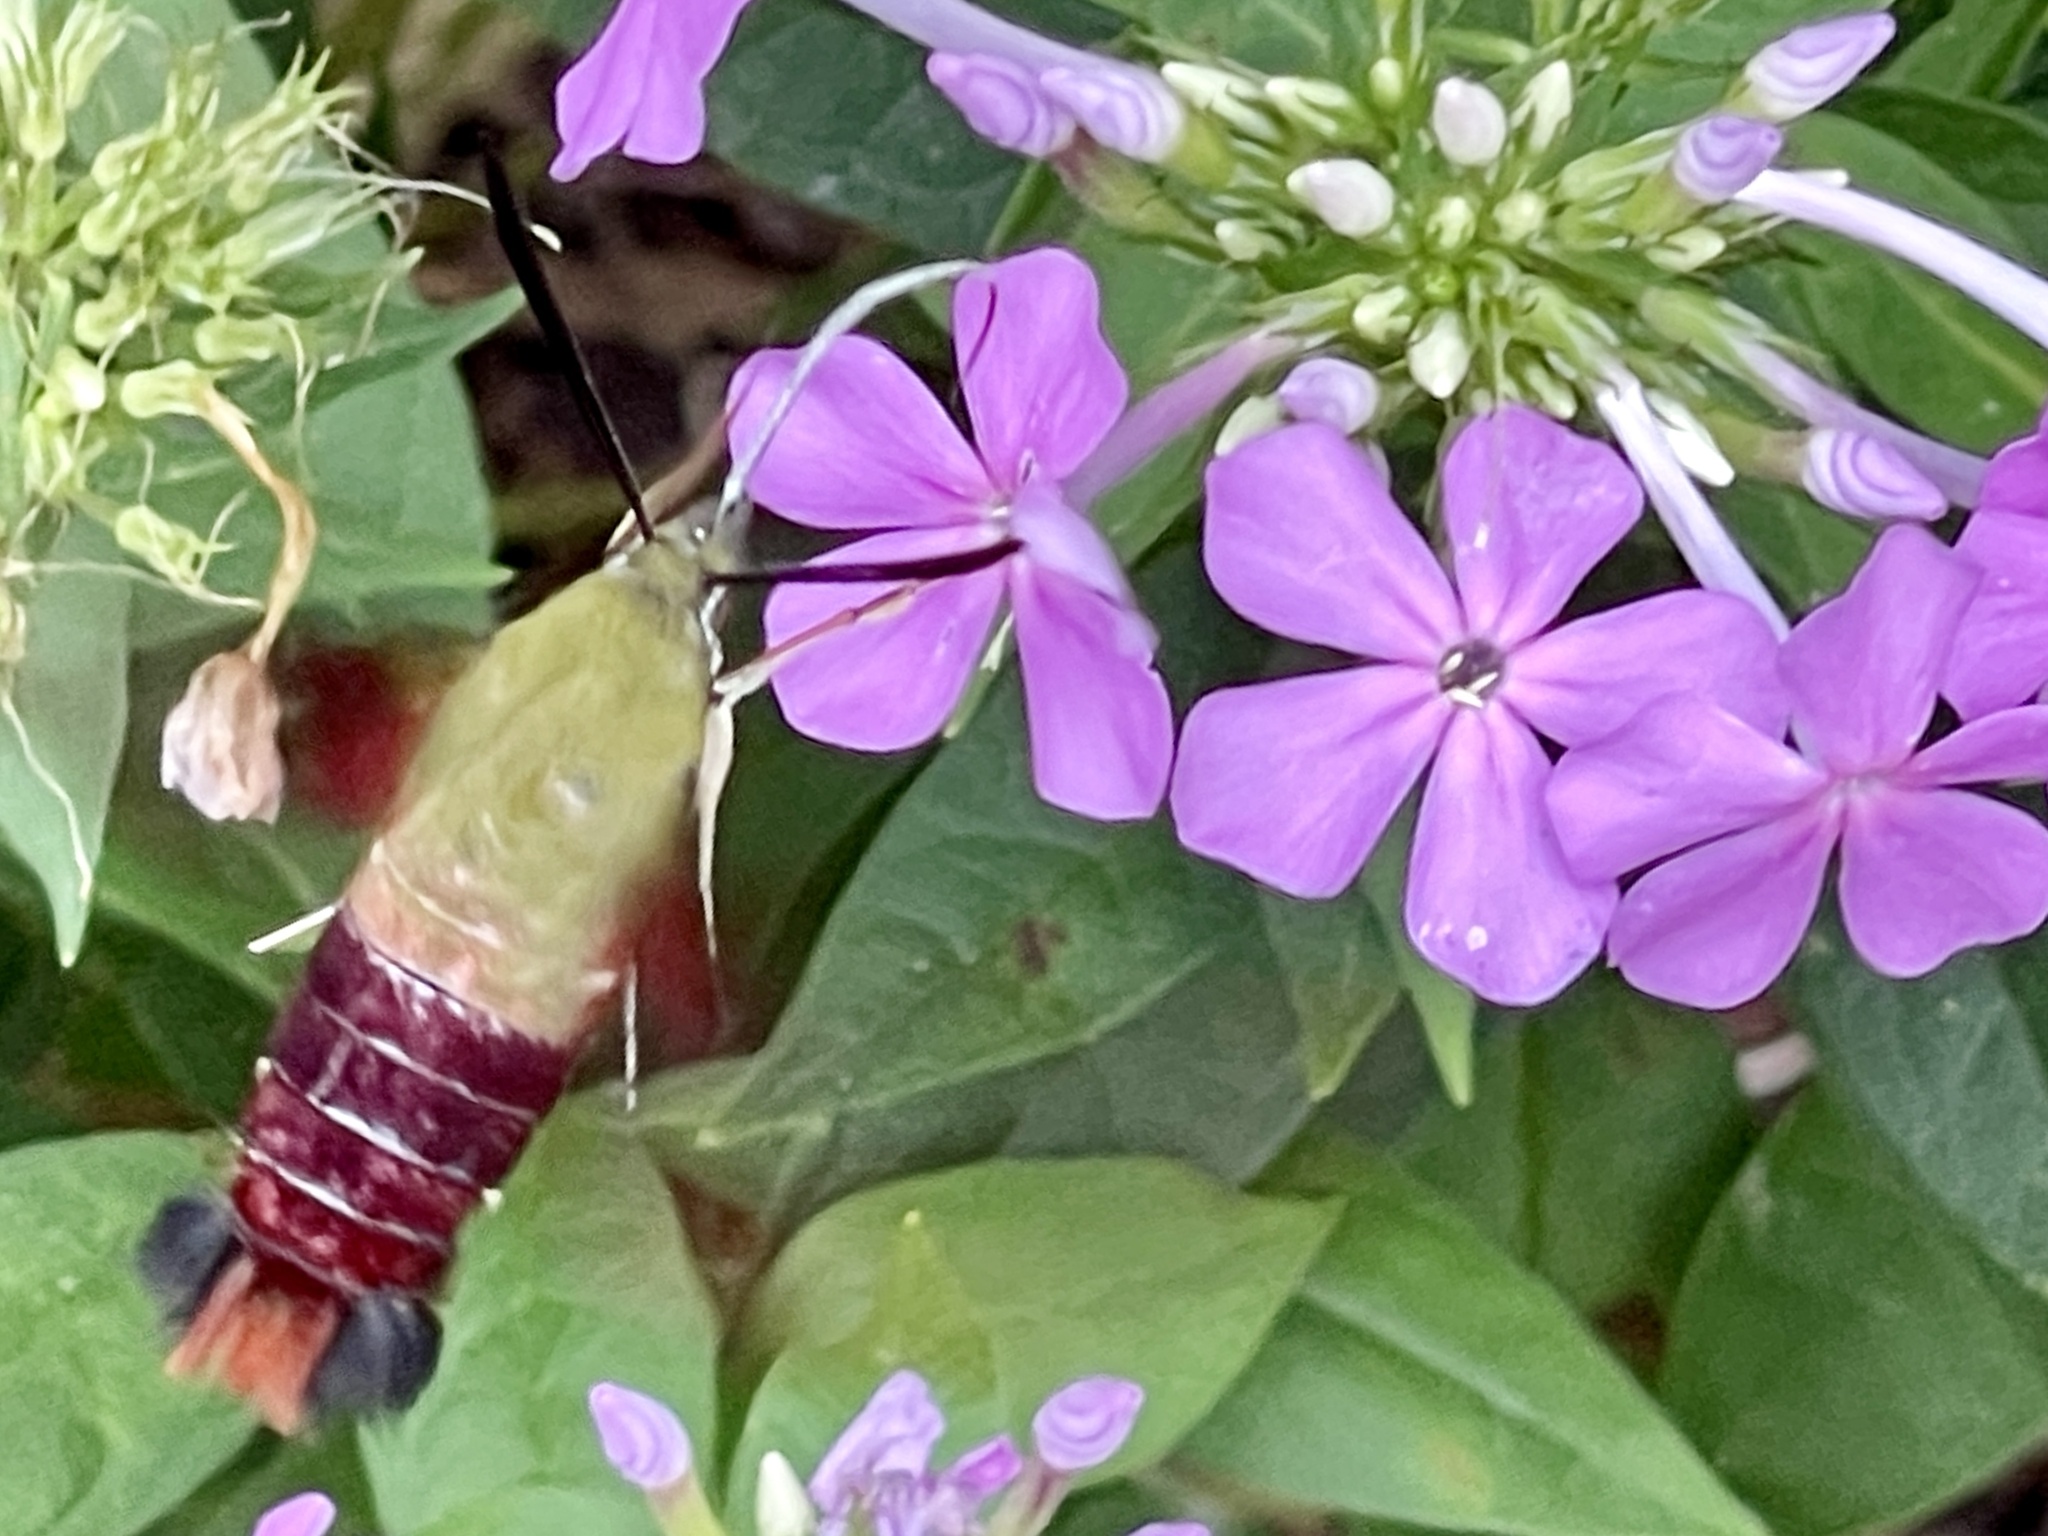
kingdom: Animalia
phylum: Arthropoda
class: Insecta
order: Lepidoptera
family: Sphingidae
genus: Hemaris
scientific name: Hemaris thysbe
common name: Common clear-wing
